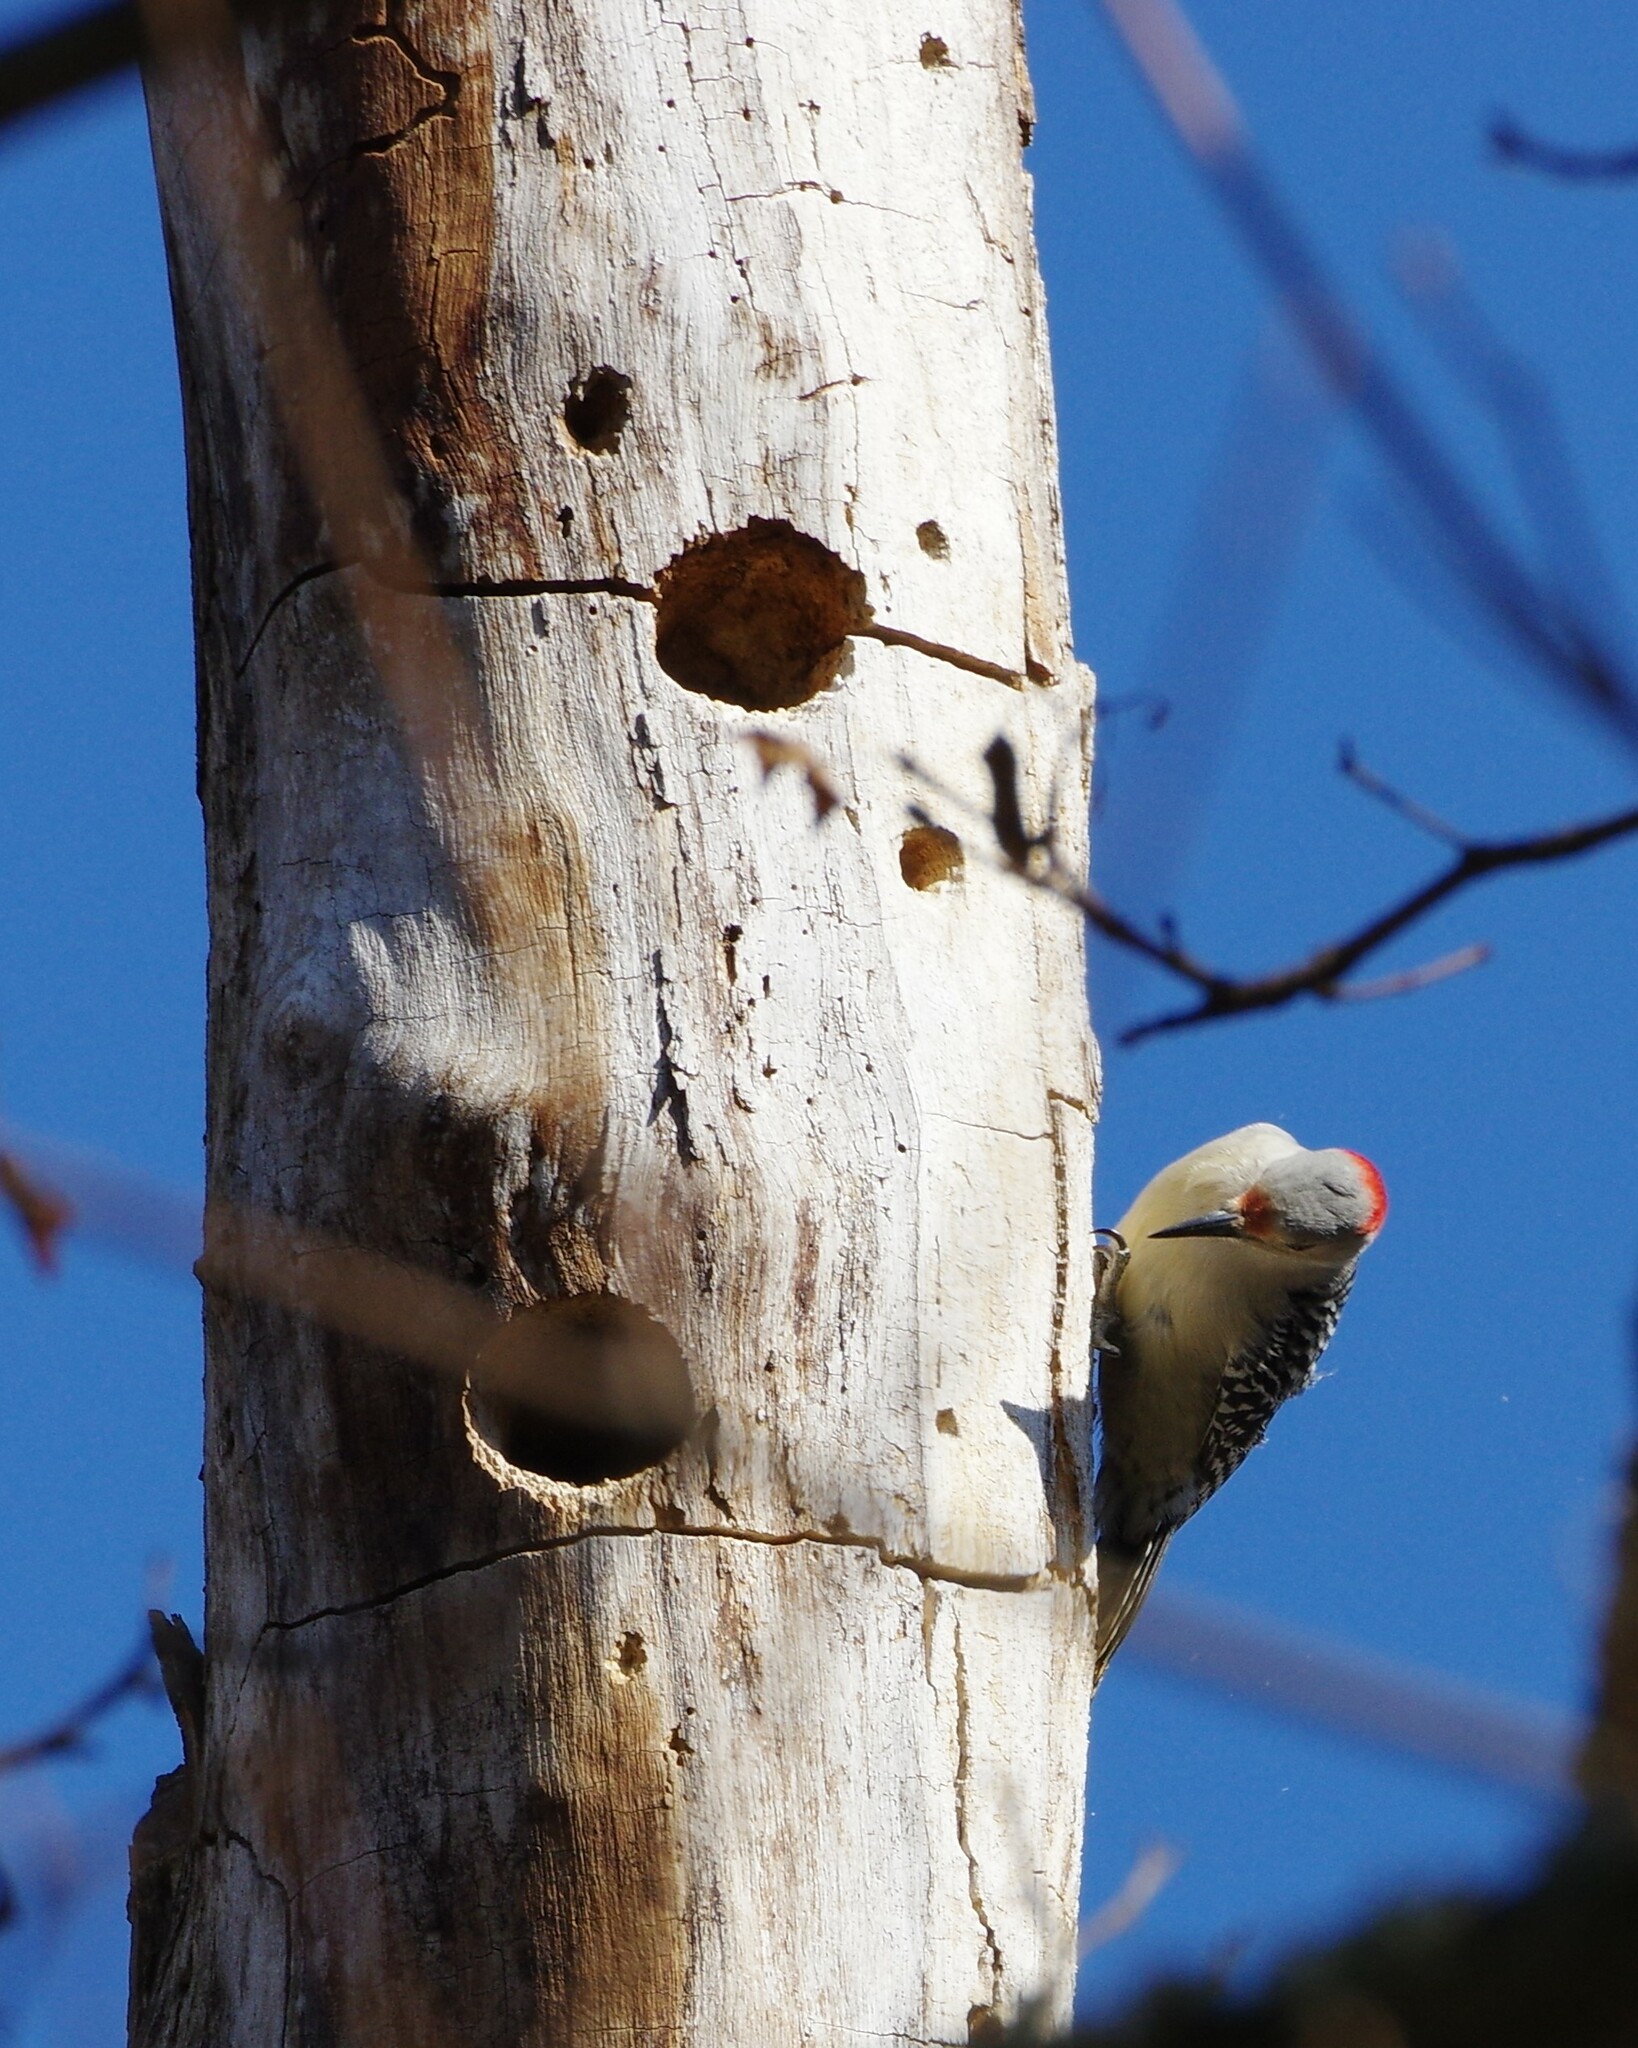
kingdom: Animalia
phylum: Chordata
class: Aves
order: Piciformes
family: Picidae
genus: Melanerpes
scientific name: Melanerpes carolinus
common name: Red-bellied woodpecker
